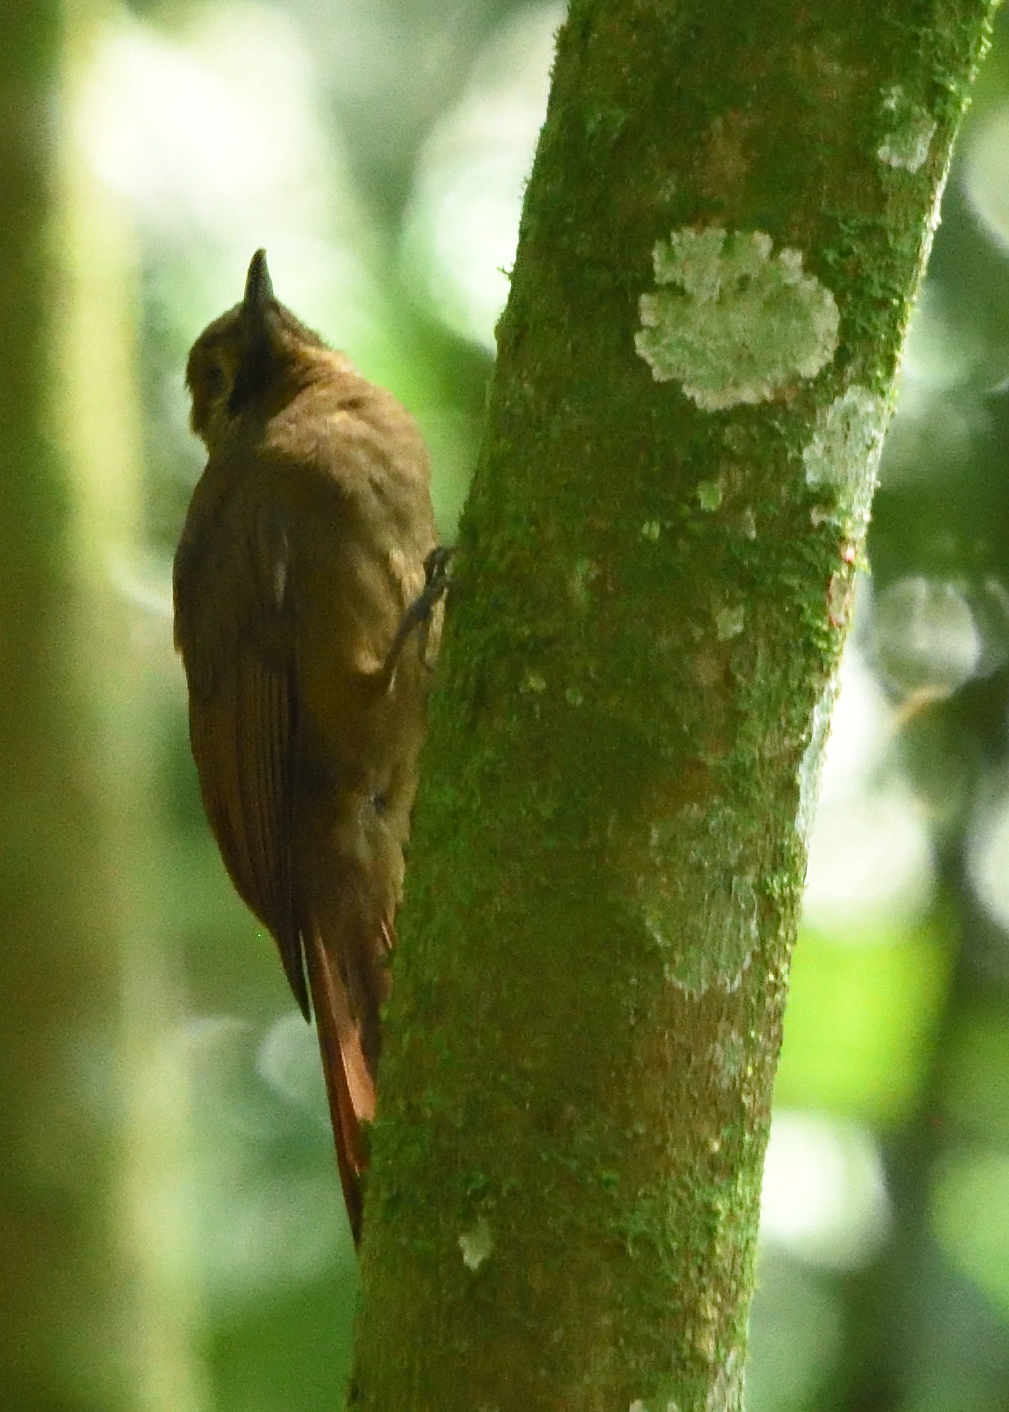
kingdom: Animalia
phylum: Chordata
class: Aves
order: Passeriformes
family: Furnariidae
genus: Dendrocincla
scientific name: Dendrocincla fuliginosa
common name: Plain-brown woodcreeper
